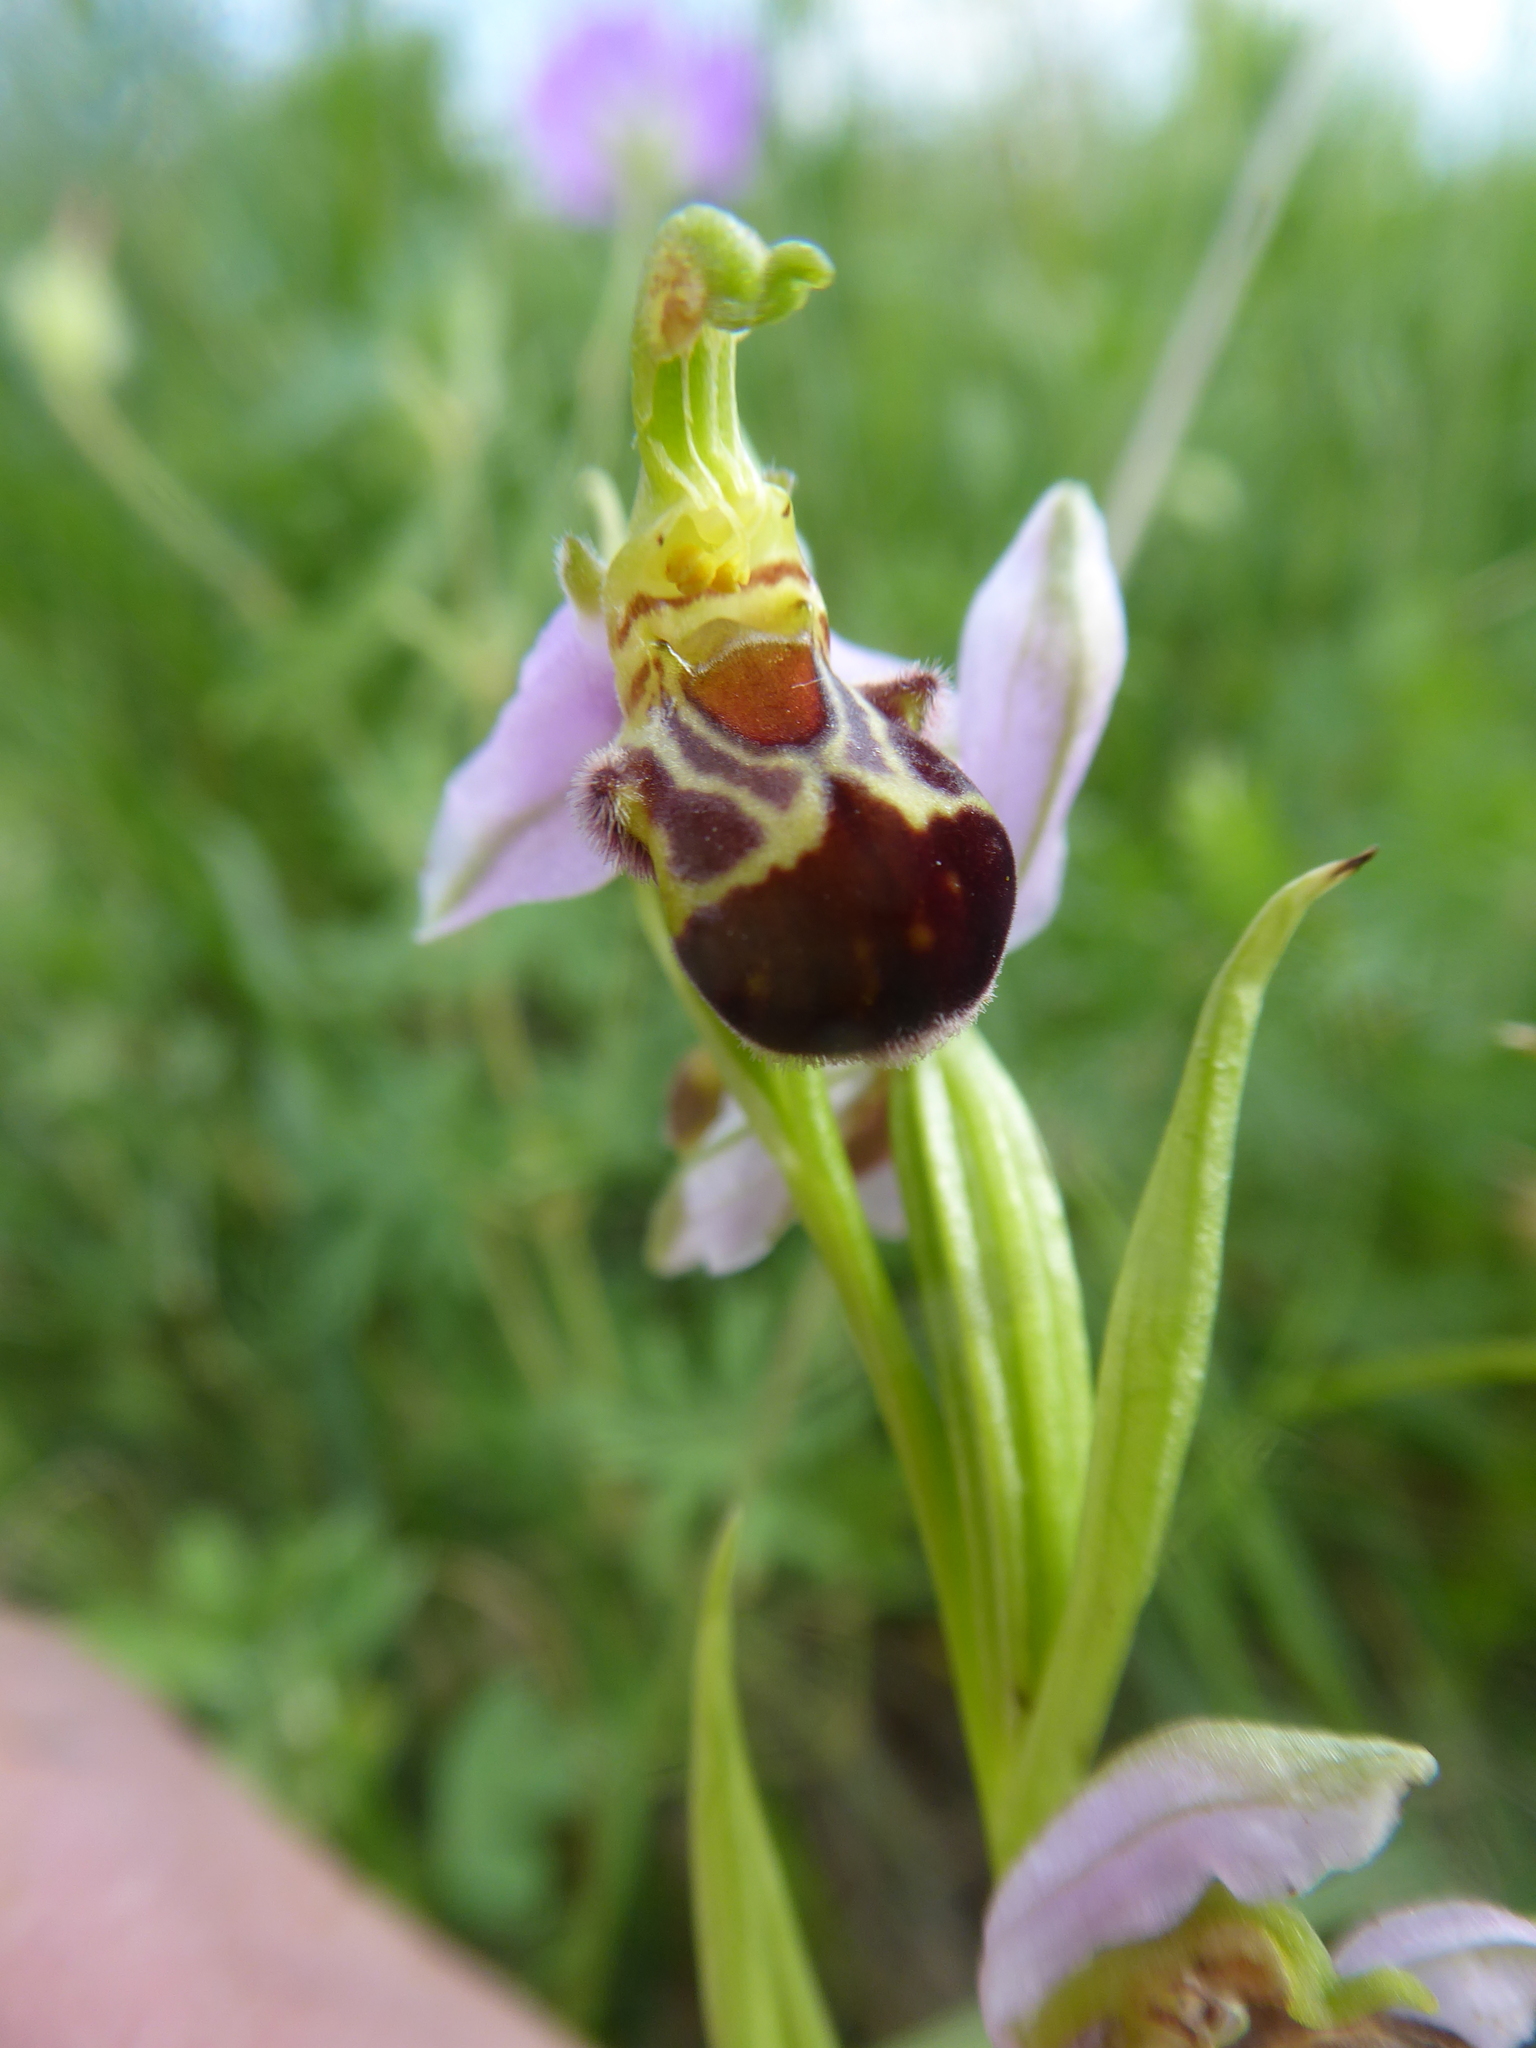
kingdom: Plantae
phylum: Tracheophyta
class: Liliopsida
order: Asparagales
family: Orchidaceae
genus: Ophrys
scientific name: Ophrys apifera
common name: Bee orchid
